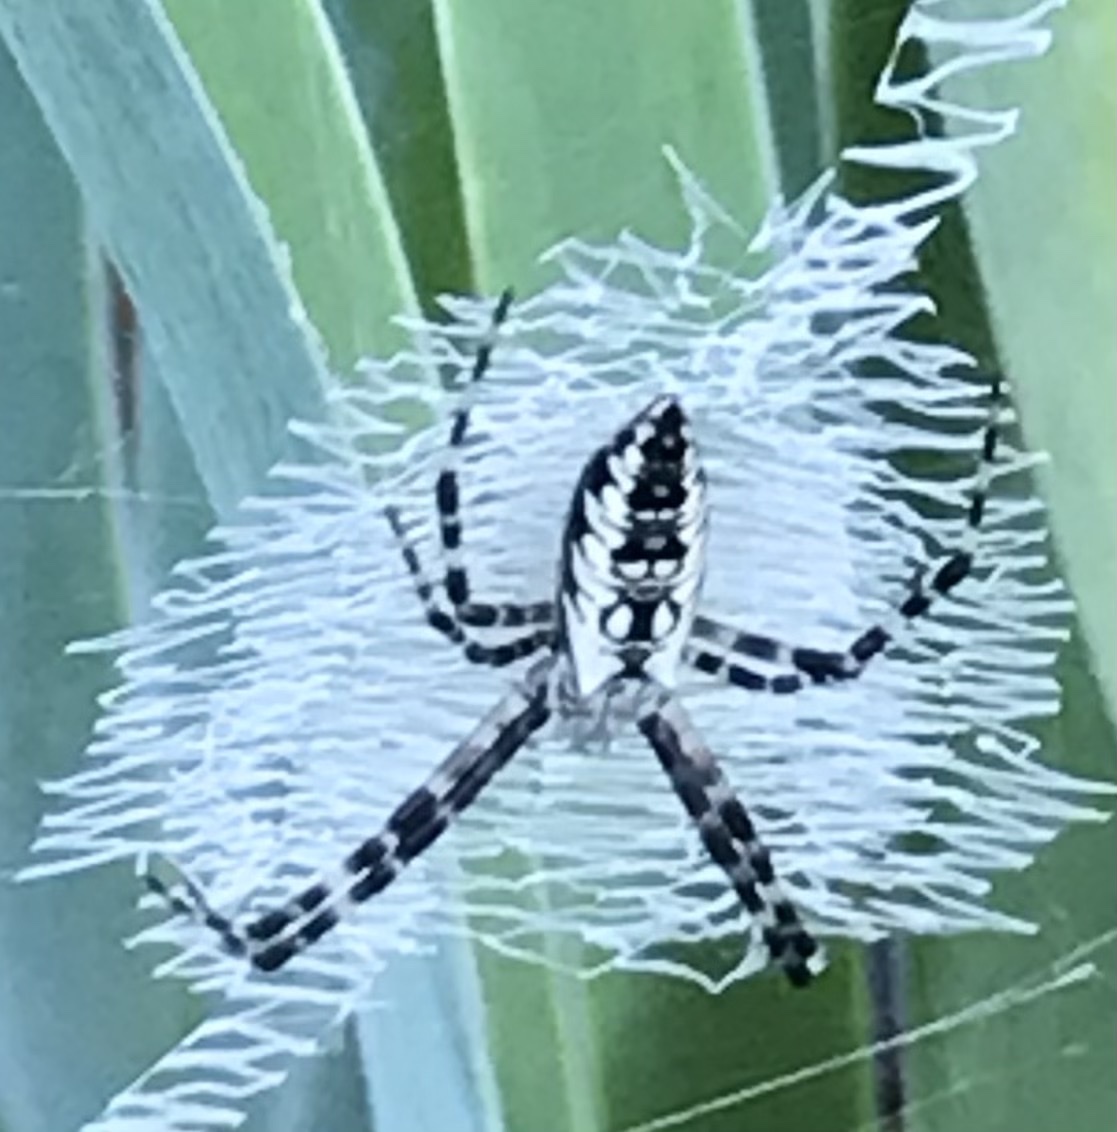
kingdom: Animalia
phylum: Arthropoda
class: Arachnida
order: Araneae
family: Araneidae
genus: Argiope
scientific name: Argiope aurantia
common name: Orb weavers
